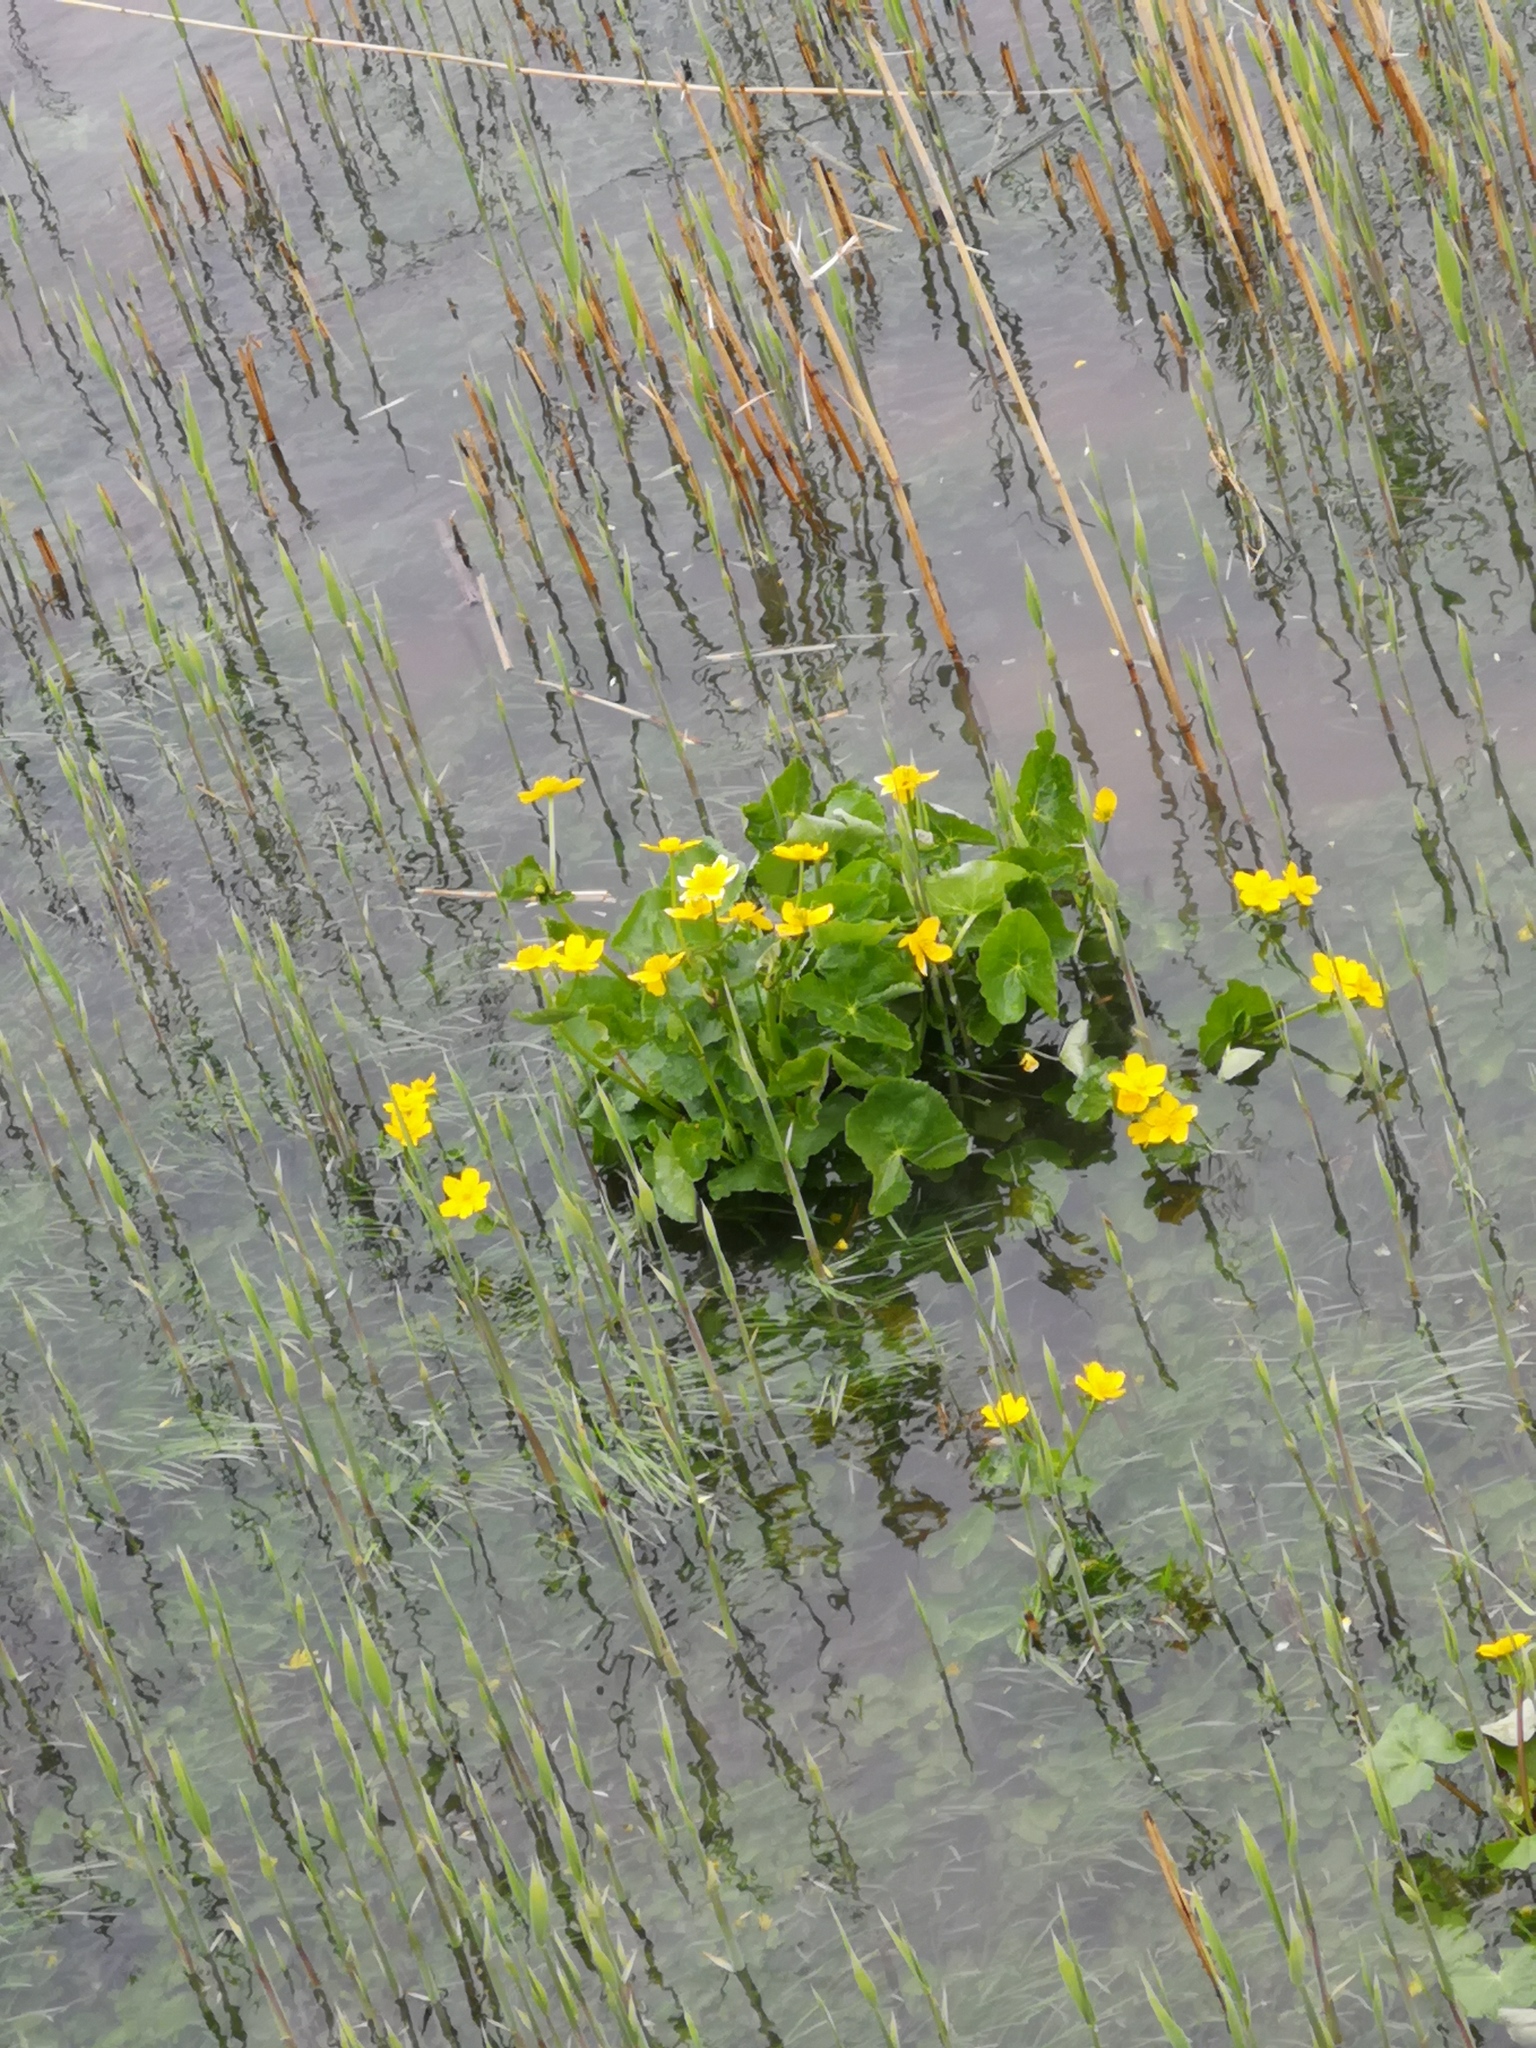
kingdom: Plantae
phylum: Tracheophyta
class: Magnoliopsida
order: Ranunculales
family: Ranunculaceae
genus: Caltha
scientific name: Caltha palustris
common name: Marsh marigold
